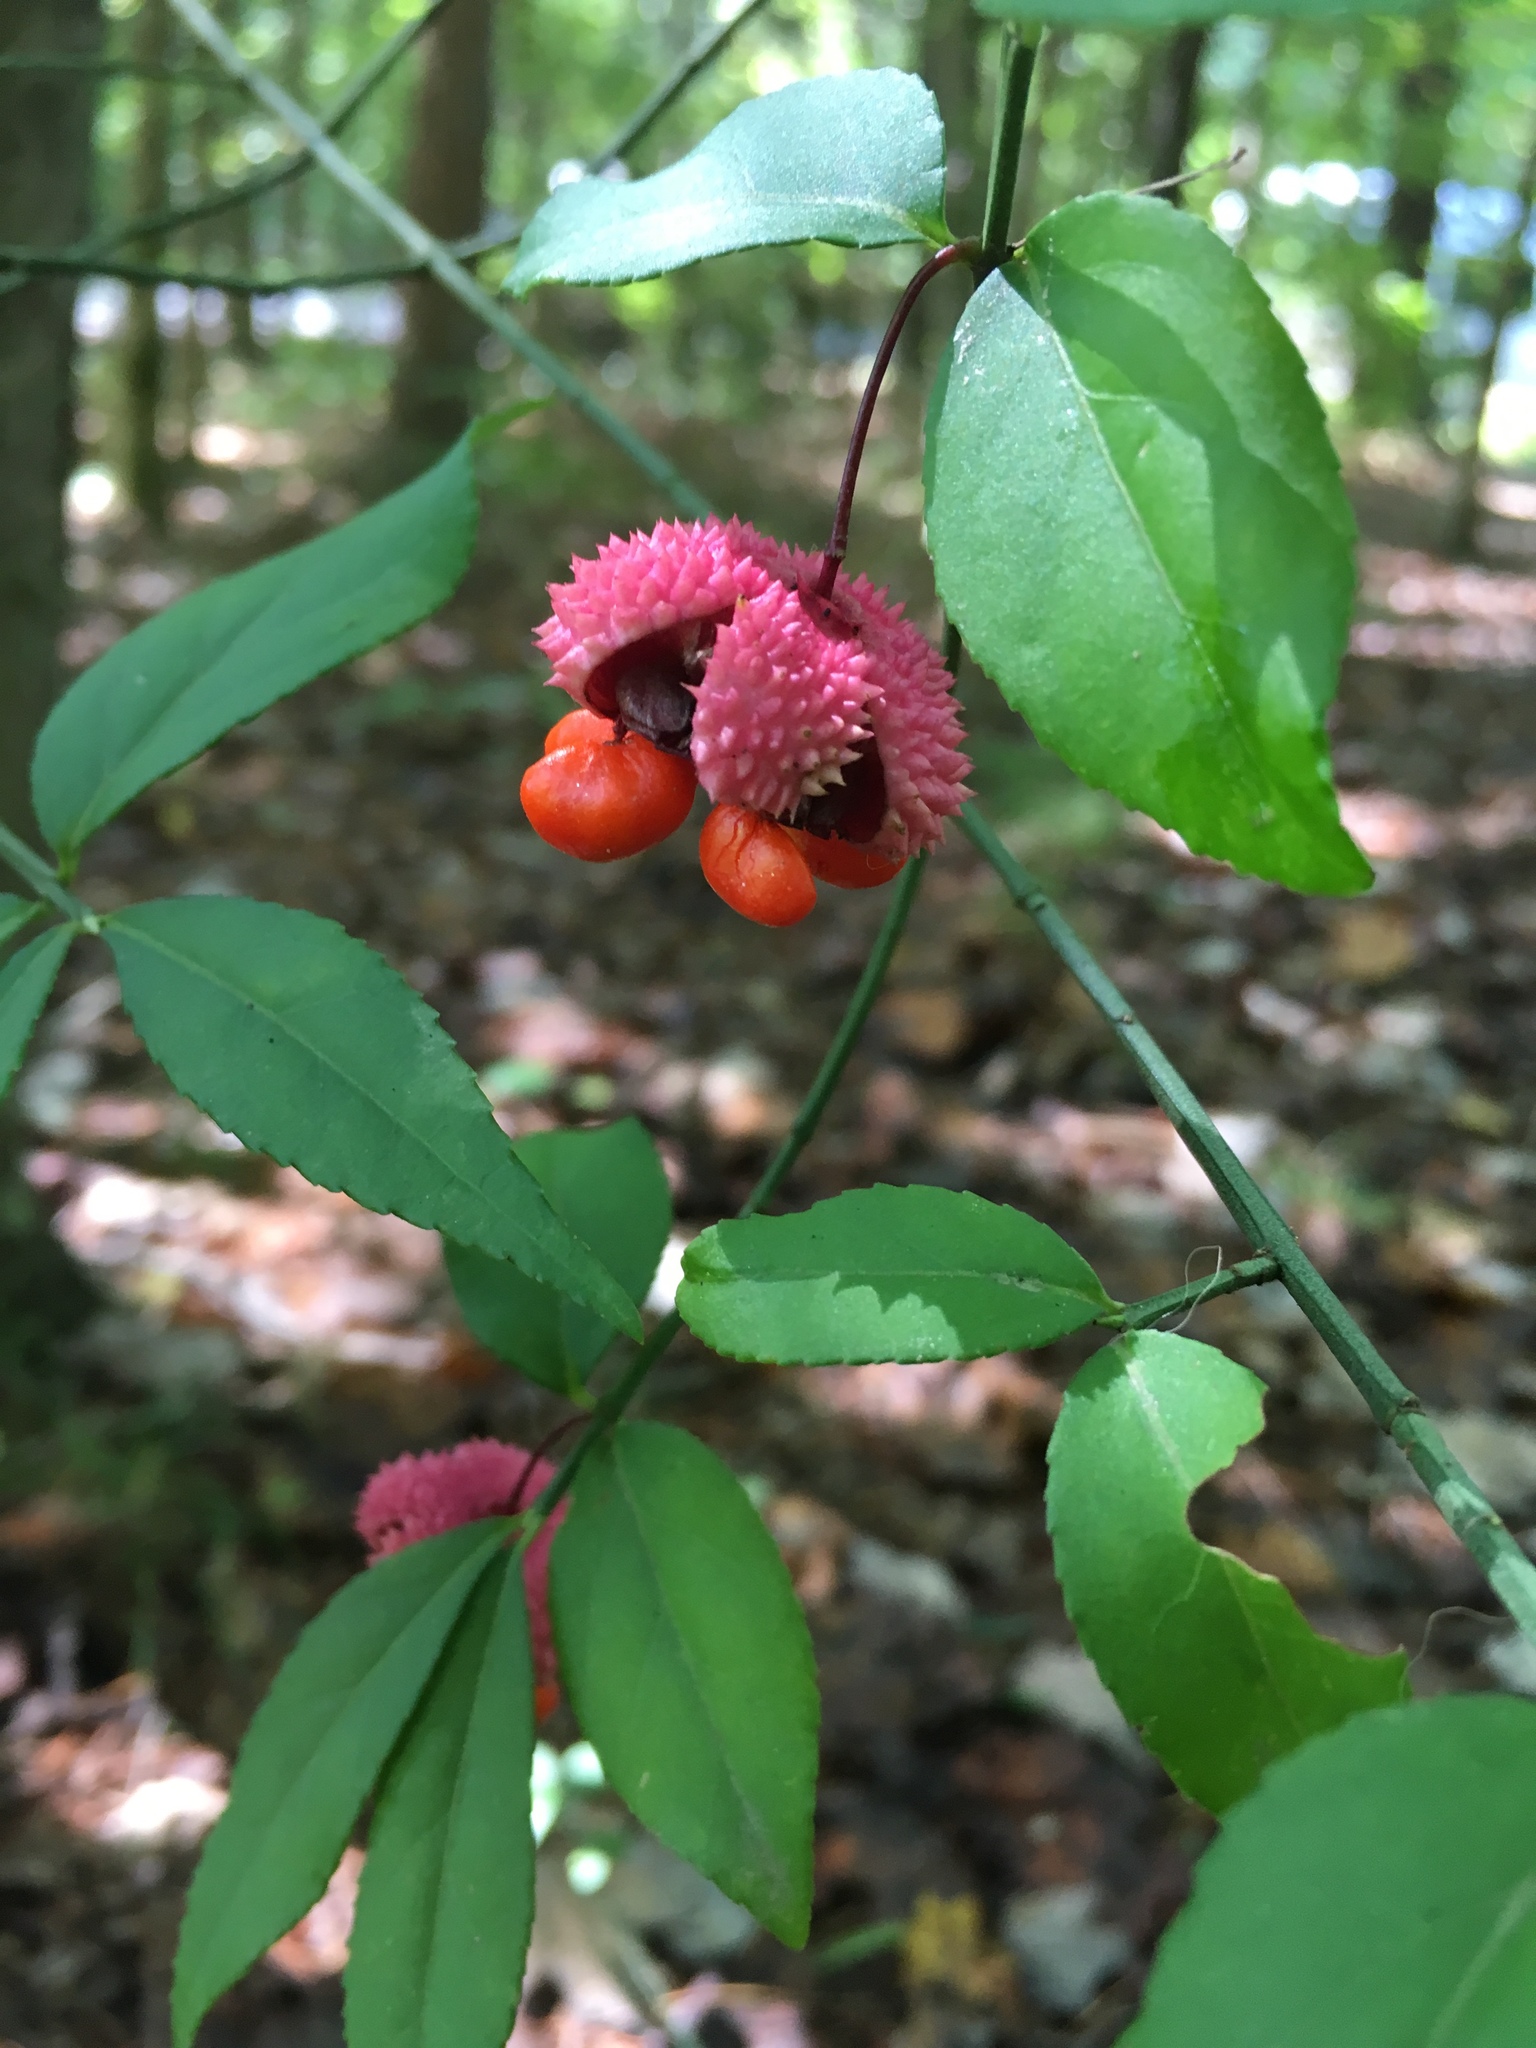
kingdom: Plantae
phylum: Tracheophyta
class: Magnoliopsida
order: Celastrales
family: Celastraceae
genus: Euonymus
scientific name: Euonymus americanus
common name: Bursting-heart
